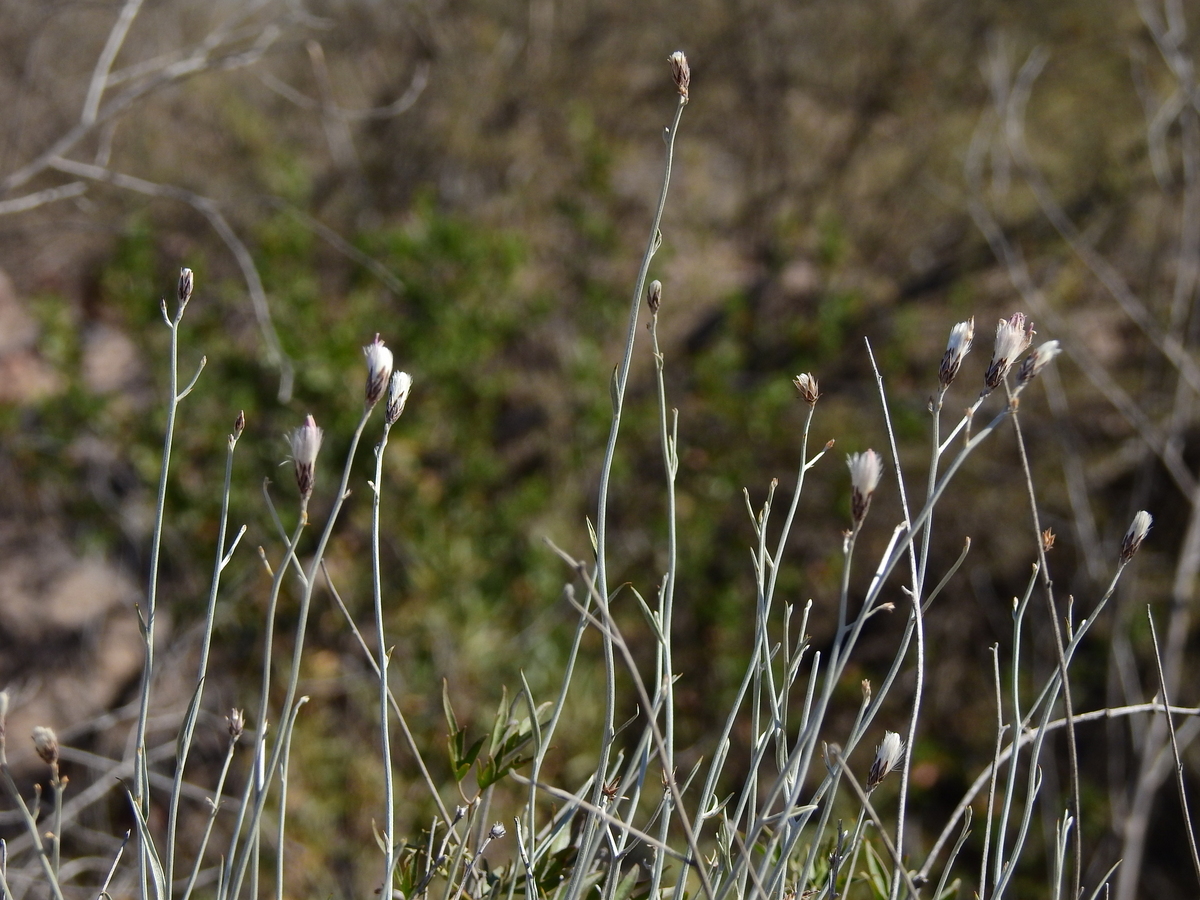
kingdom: Plantae
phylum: Tracheophyta
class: Magnoliopsida
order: Asterales
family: Asteraceae
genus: Hyalis
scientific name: Hyalis argentea
